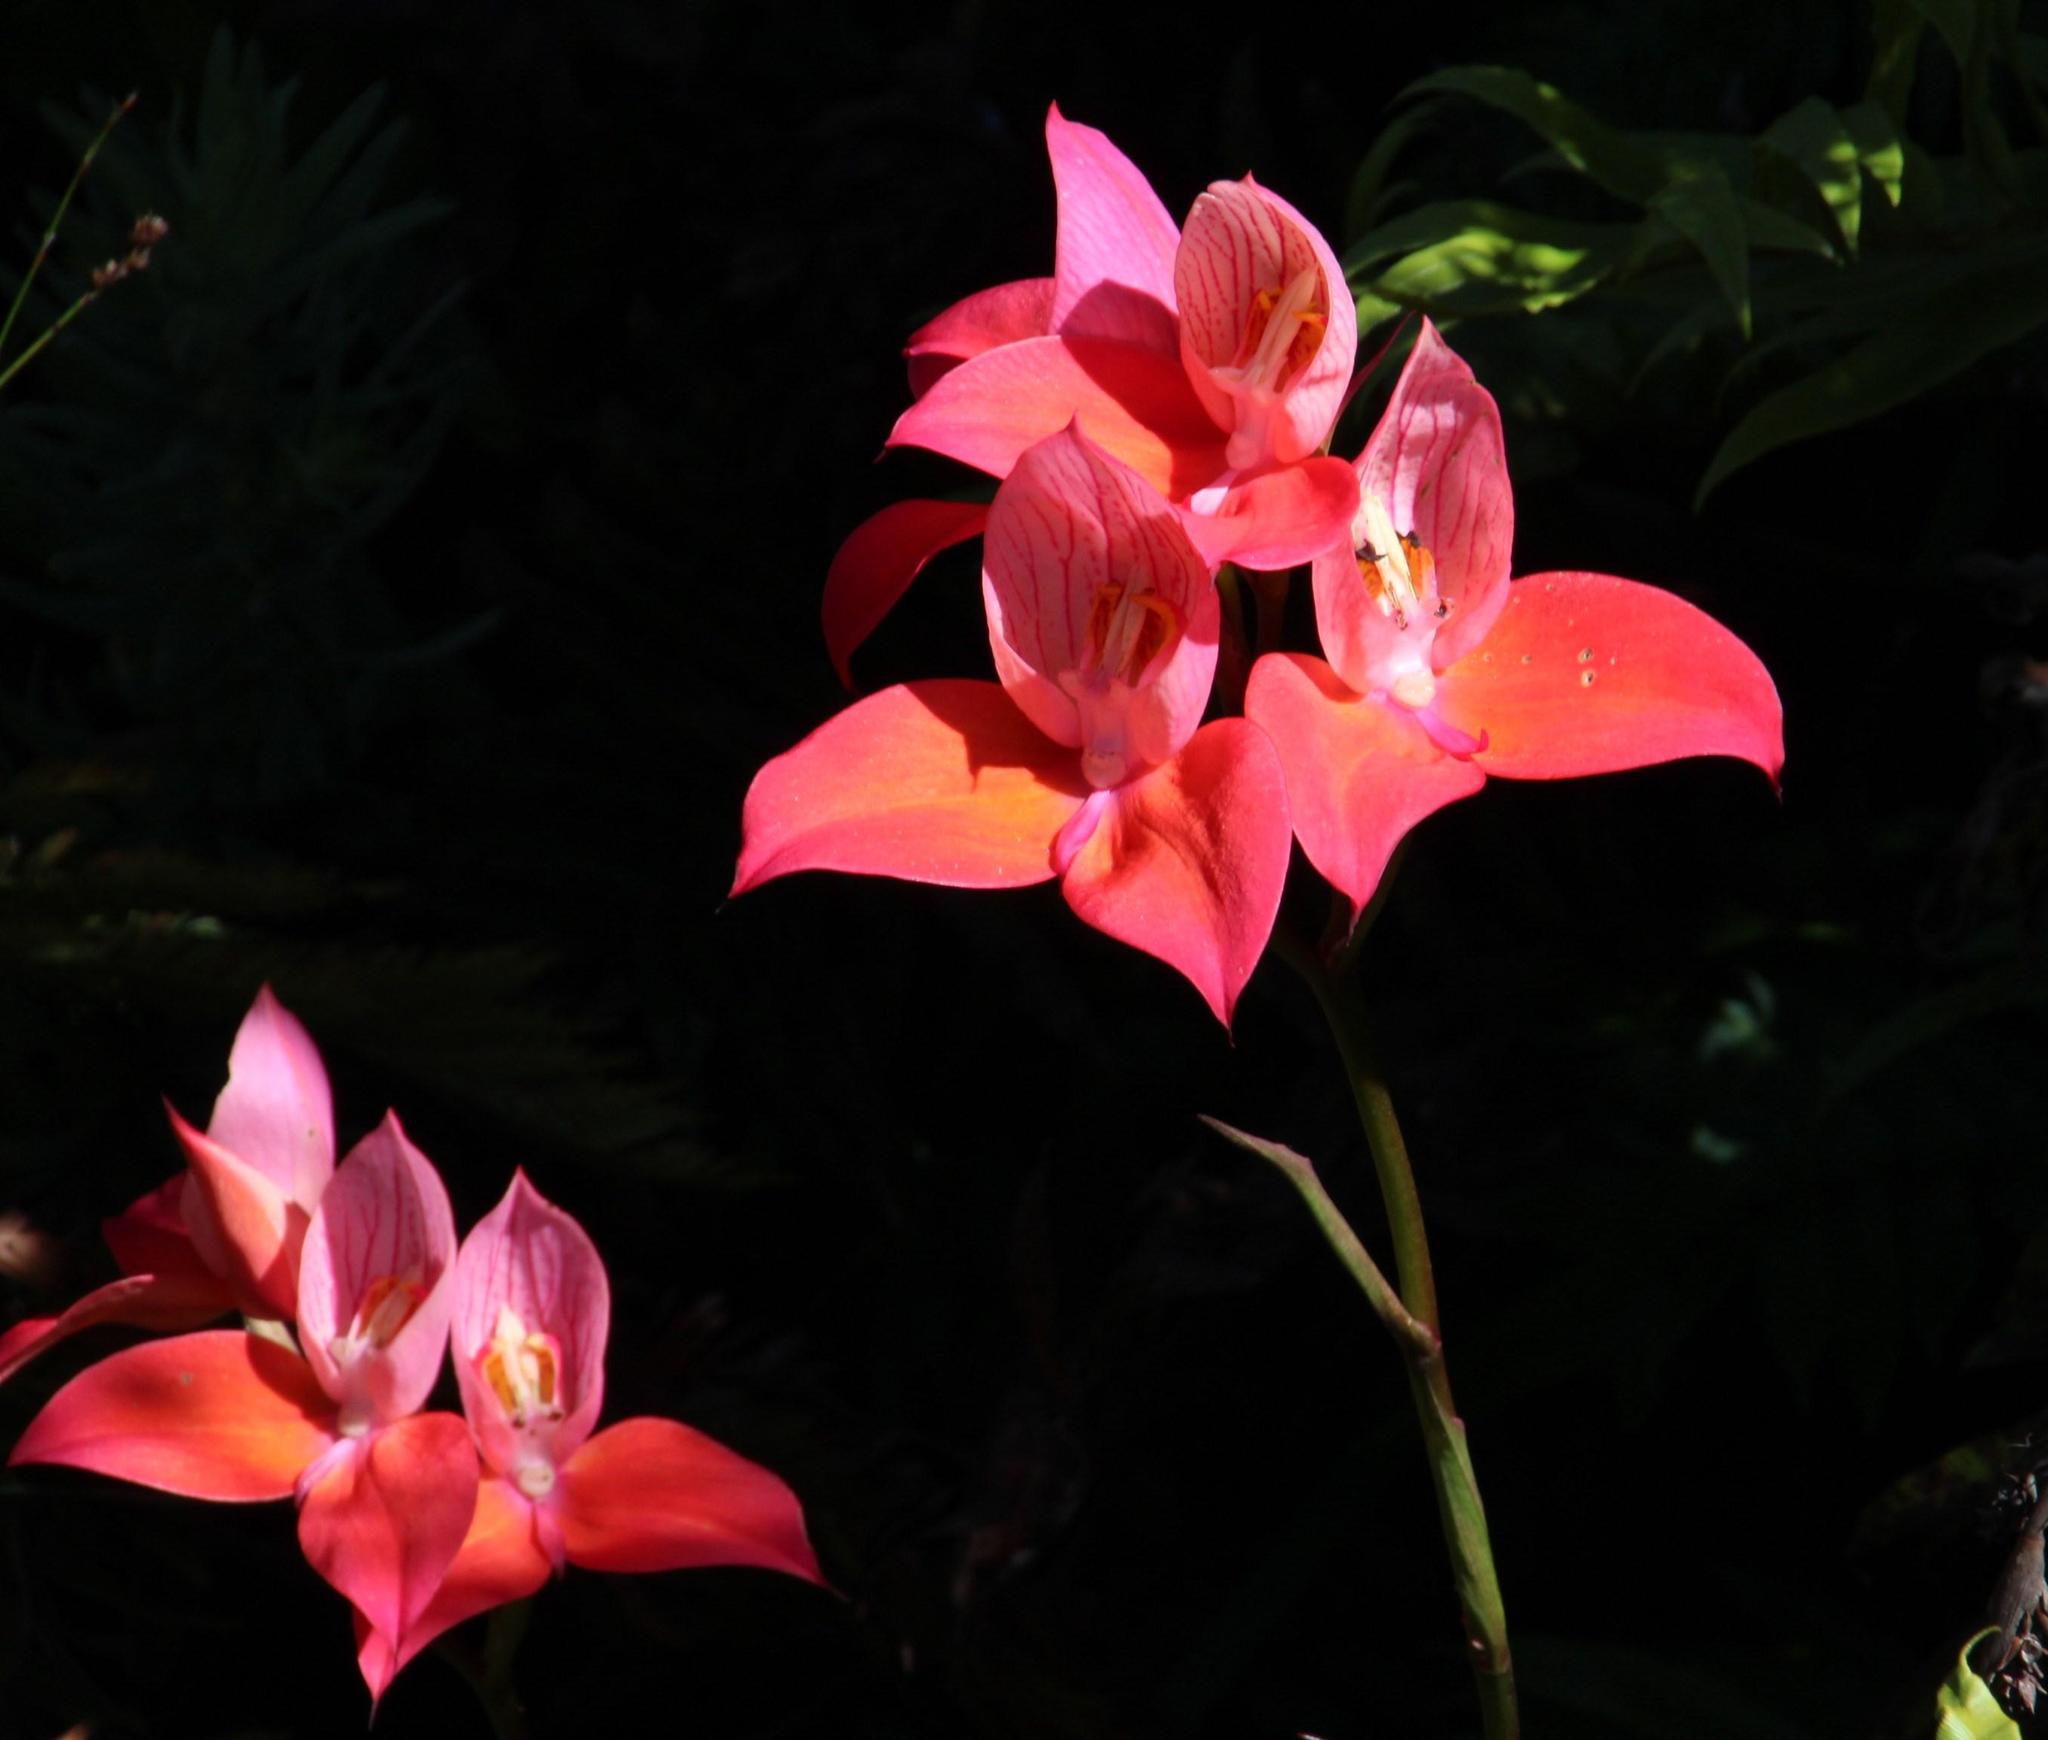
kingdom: Plantae
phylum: Tracheophyta
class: Liliopsida
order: Asparagales
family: Orchidaceae
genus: Disa
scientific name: Disa uniflora
